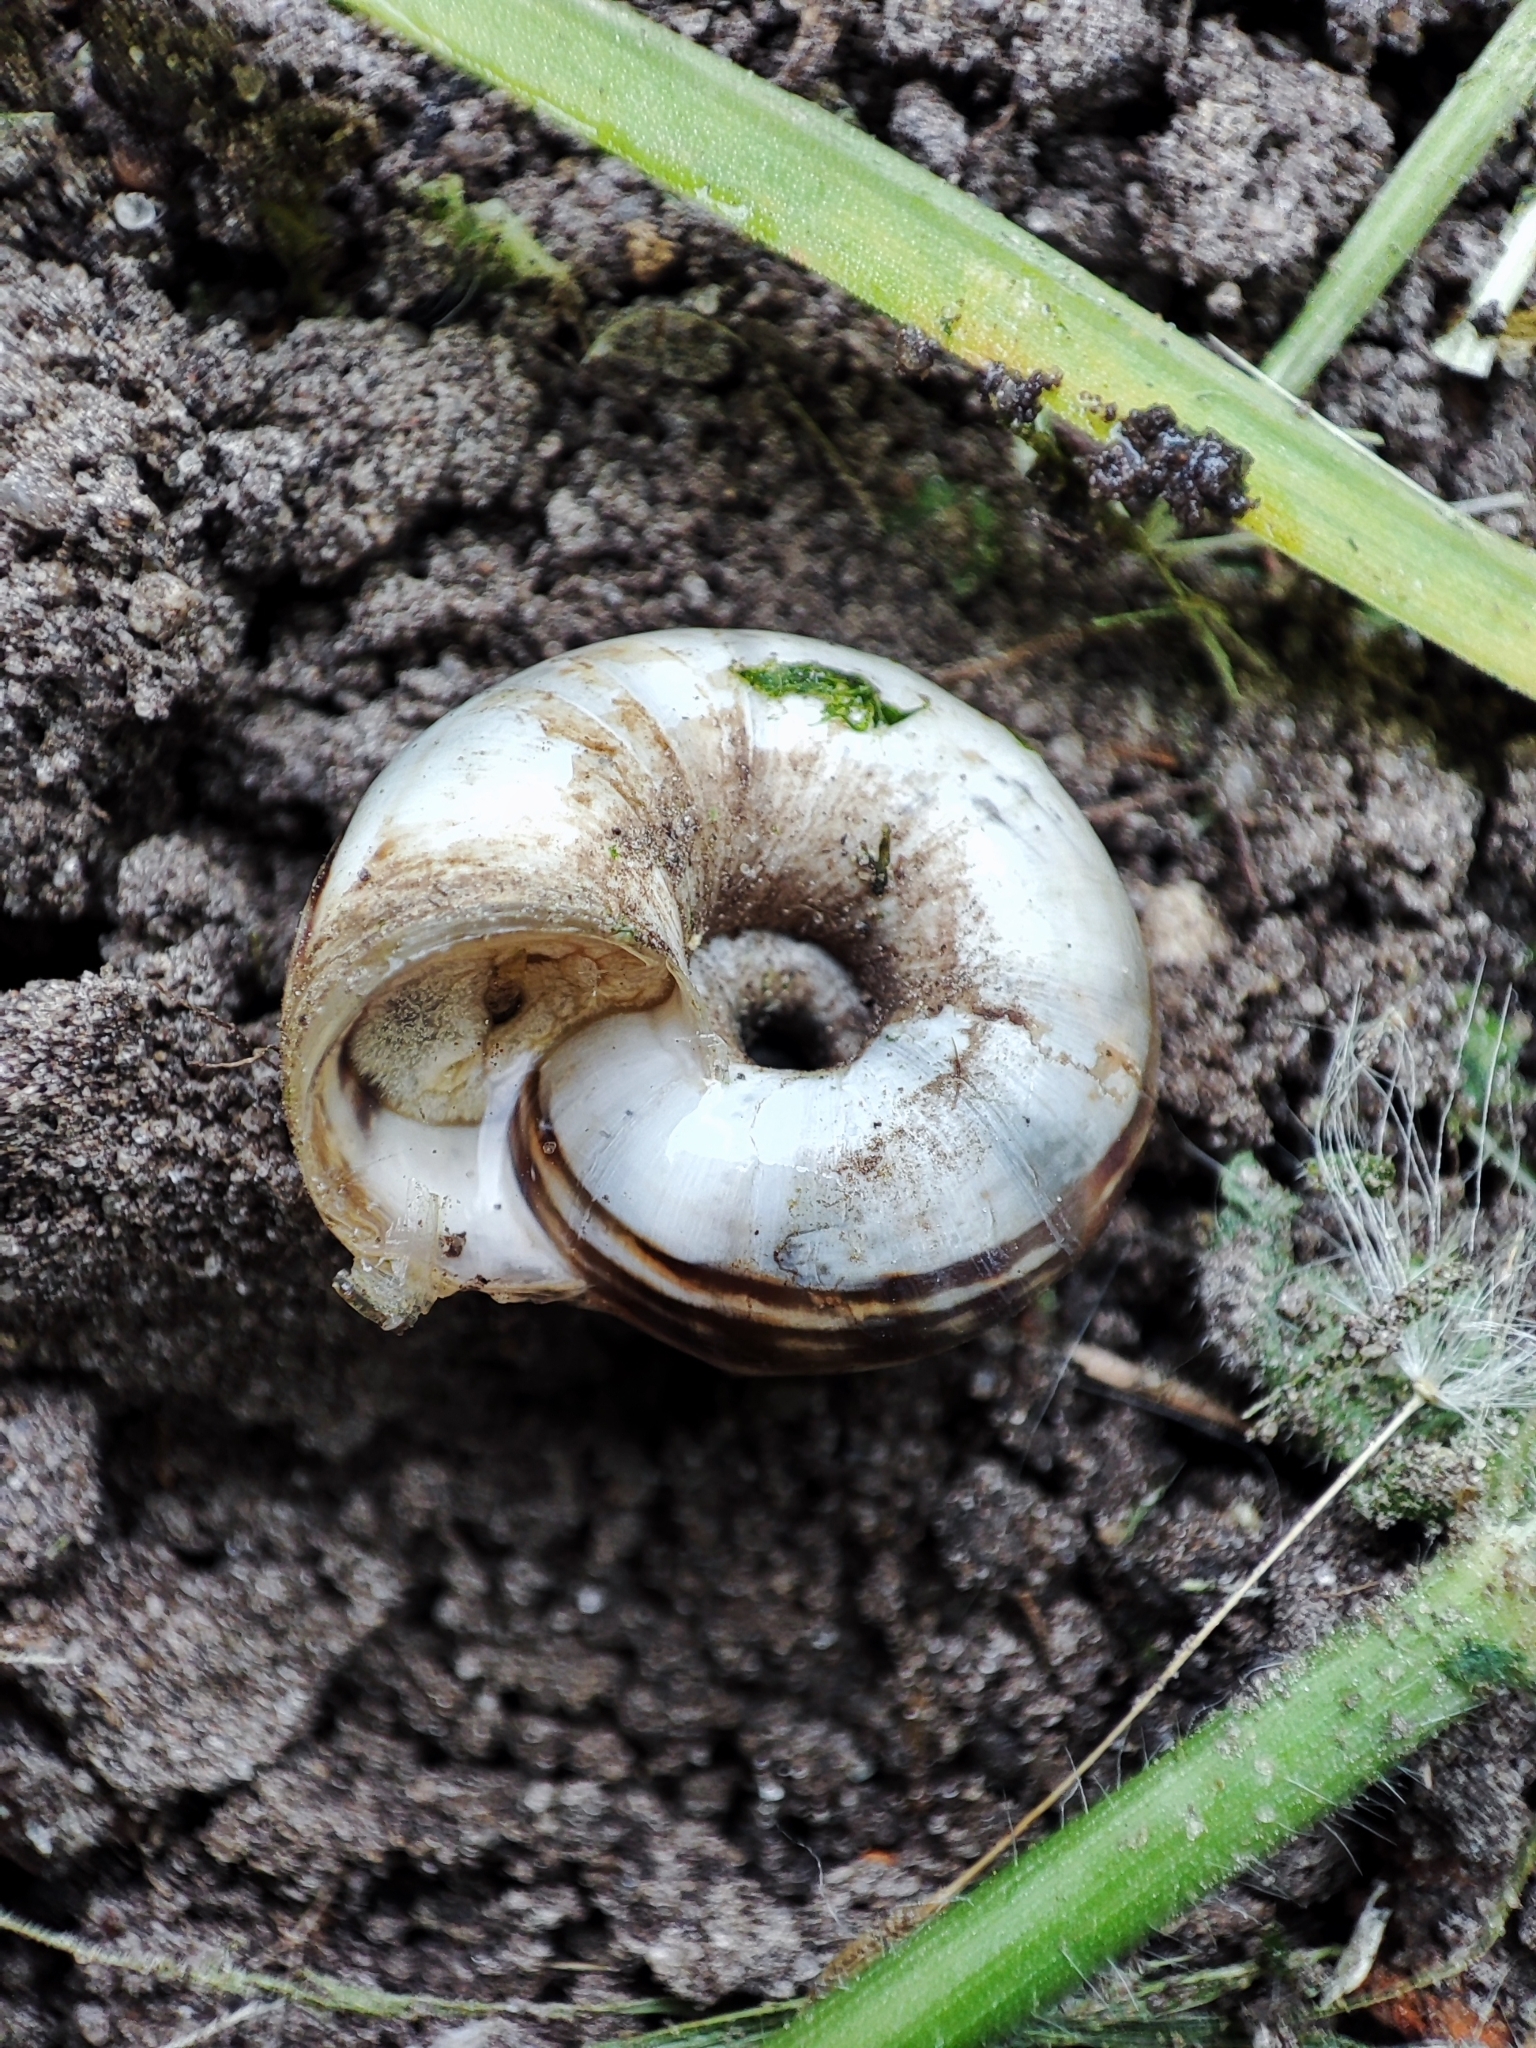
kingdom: Animalia
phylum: Mollusca
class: Gastropoda
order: Stylommatophora
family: Geomitridae
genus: Xerolenta
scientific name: Xerolenta obvia
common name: White heath snail
